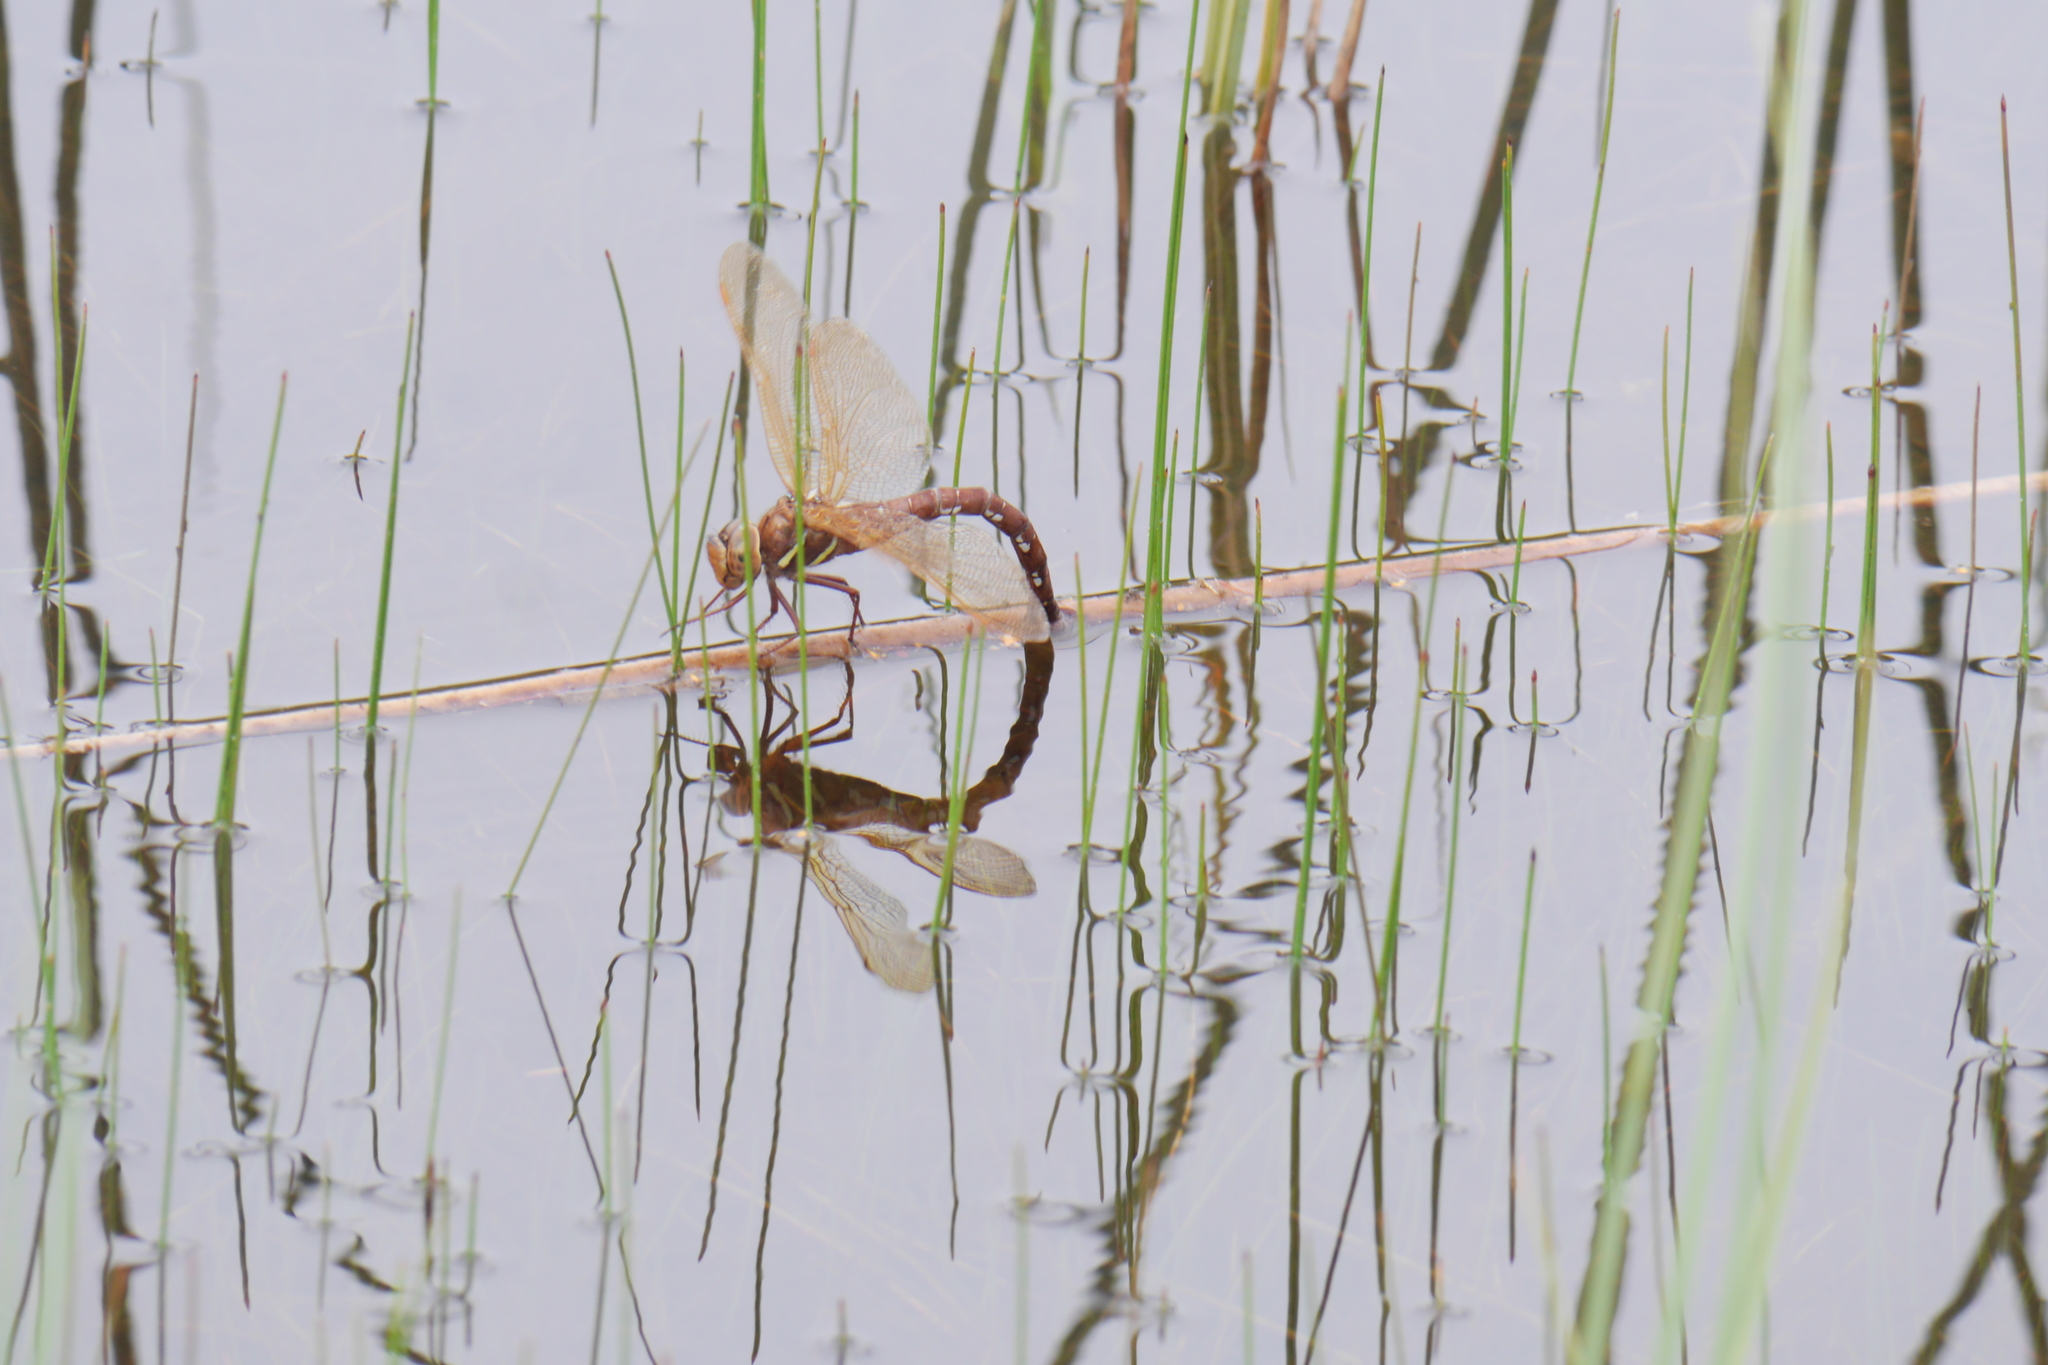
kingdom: Animalia
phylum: Arthropoda
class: Insecta
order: Odonata
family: Aeshnidae
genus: Aeshna
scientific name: Aeshna grandis
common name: Brown hawker
